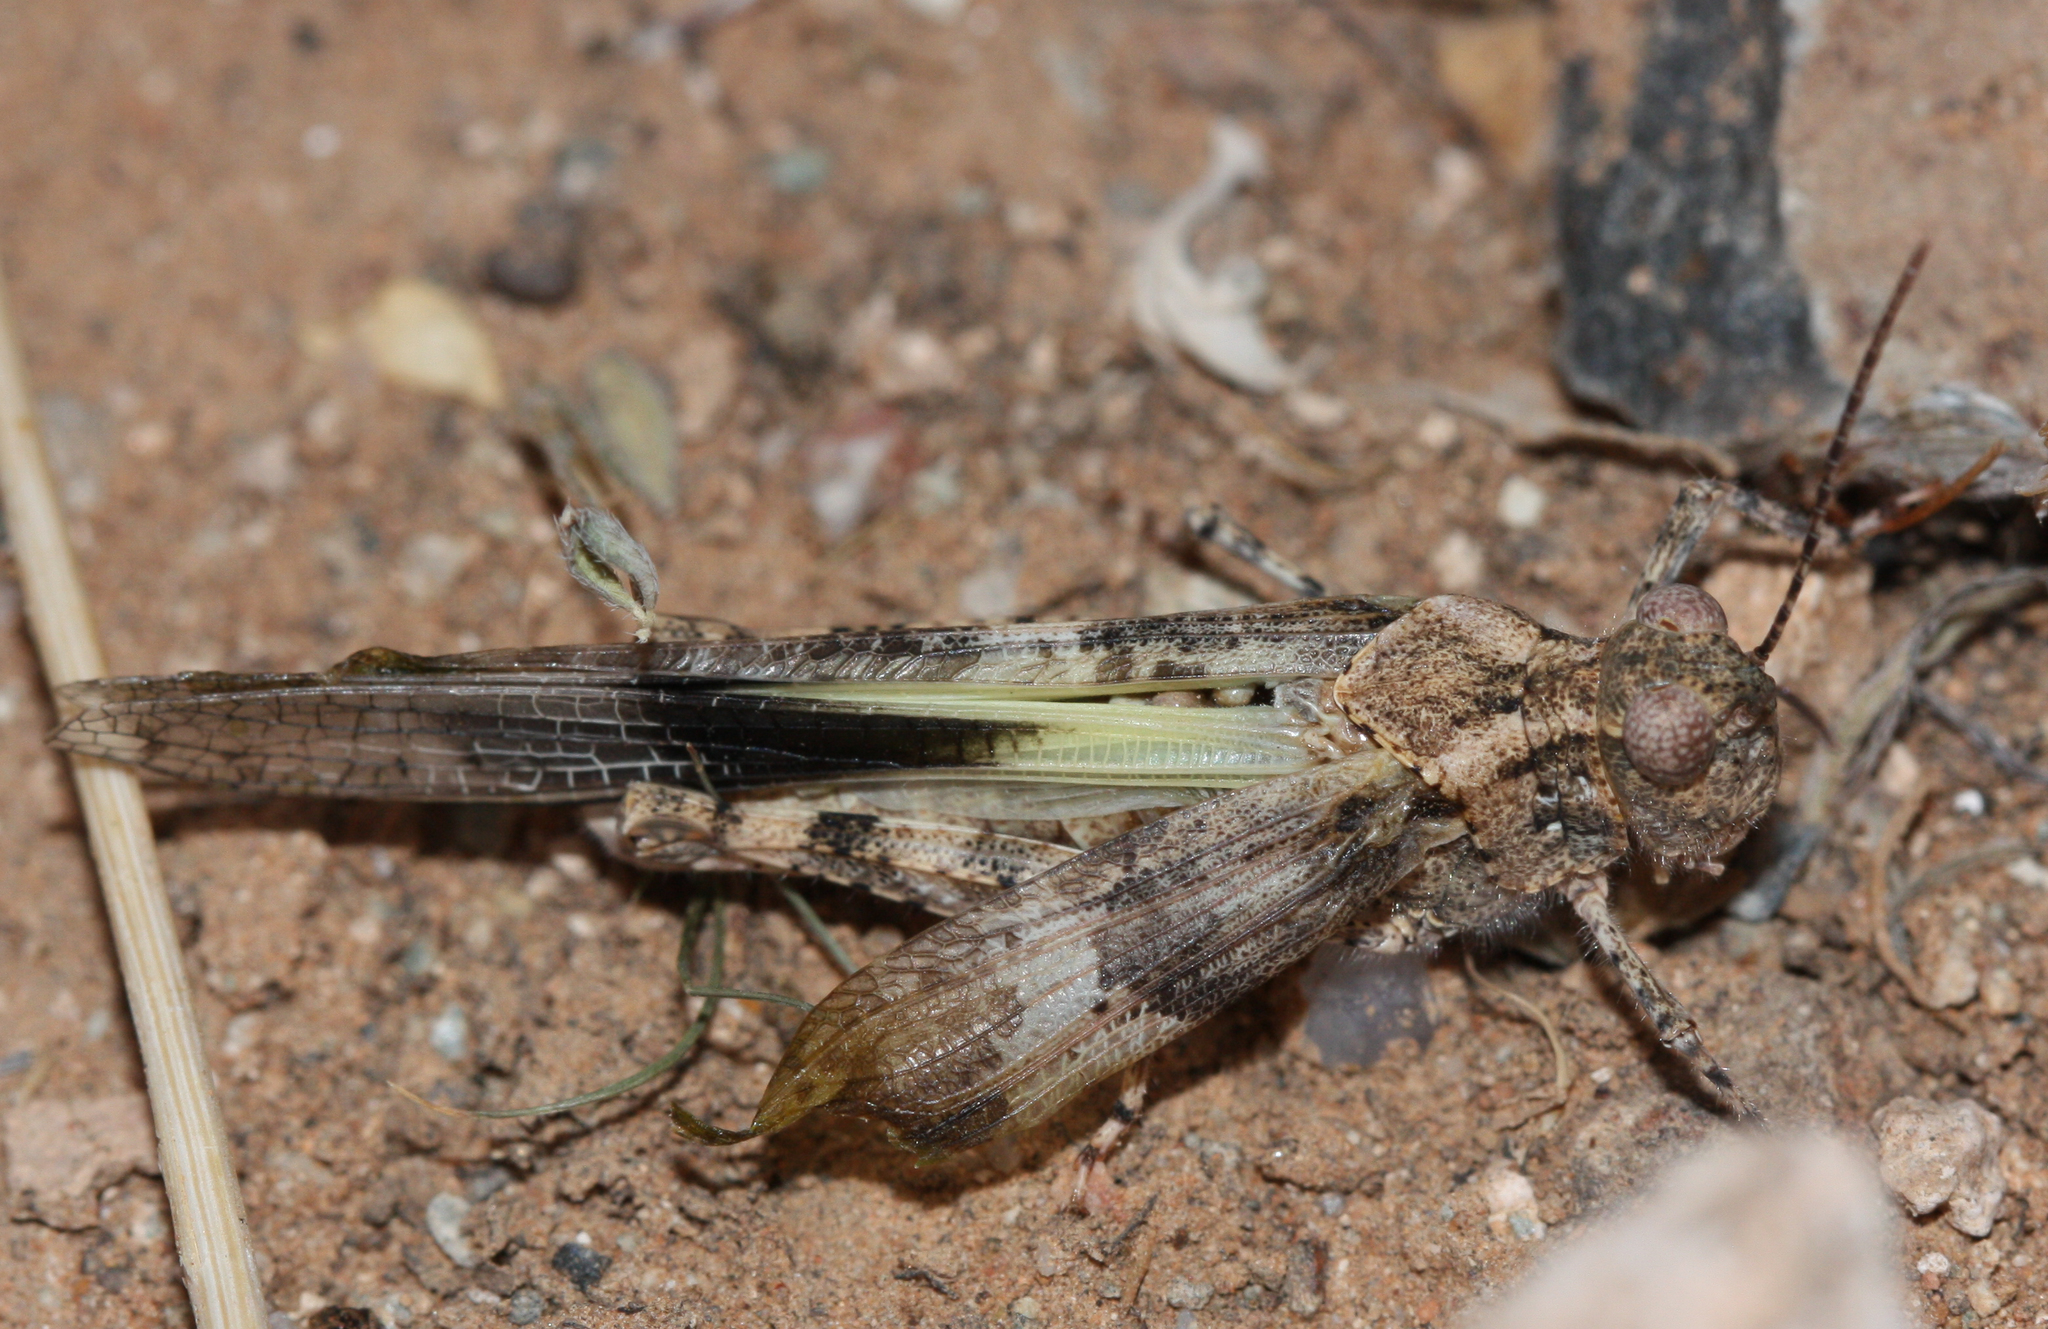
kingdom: Animalia
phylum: Arthropoda
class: Insecta
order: Orthoptera
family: Acrididae
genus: Trimerotropis
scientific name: Trimerotropis pallidipennis
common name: Pallid-winged grasshopper
